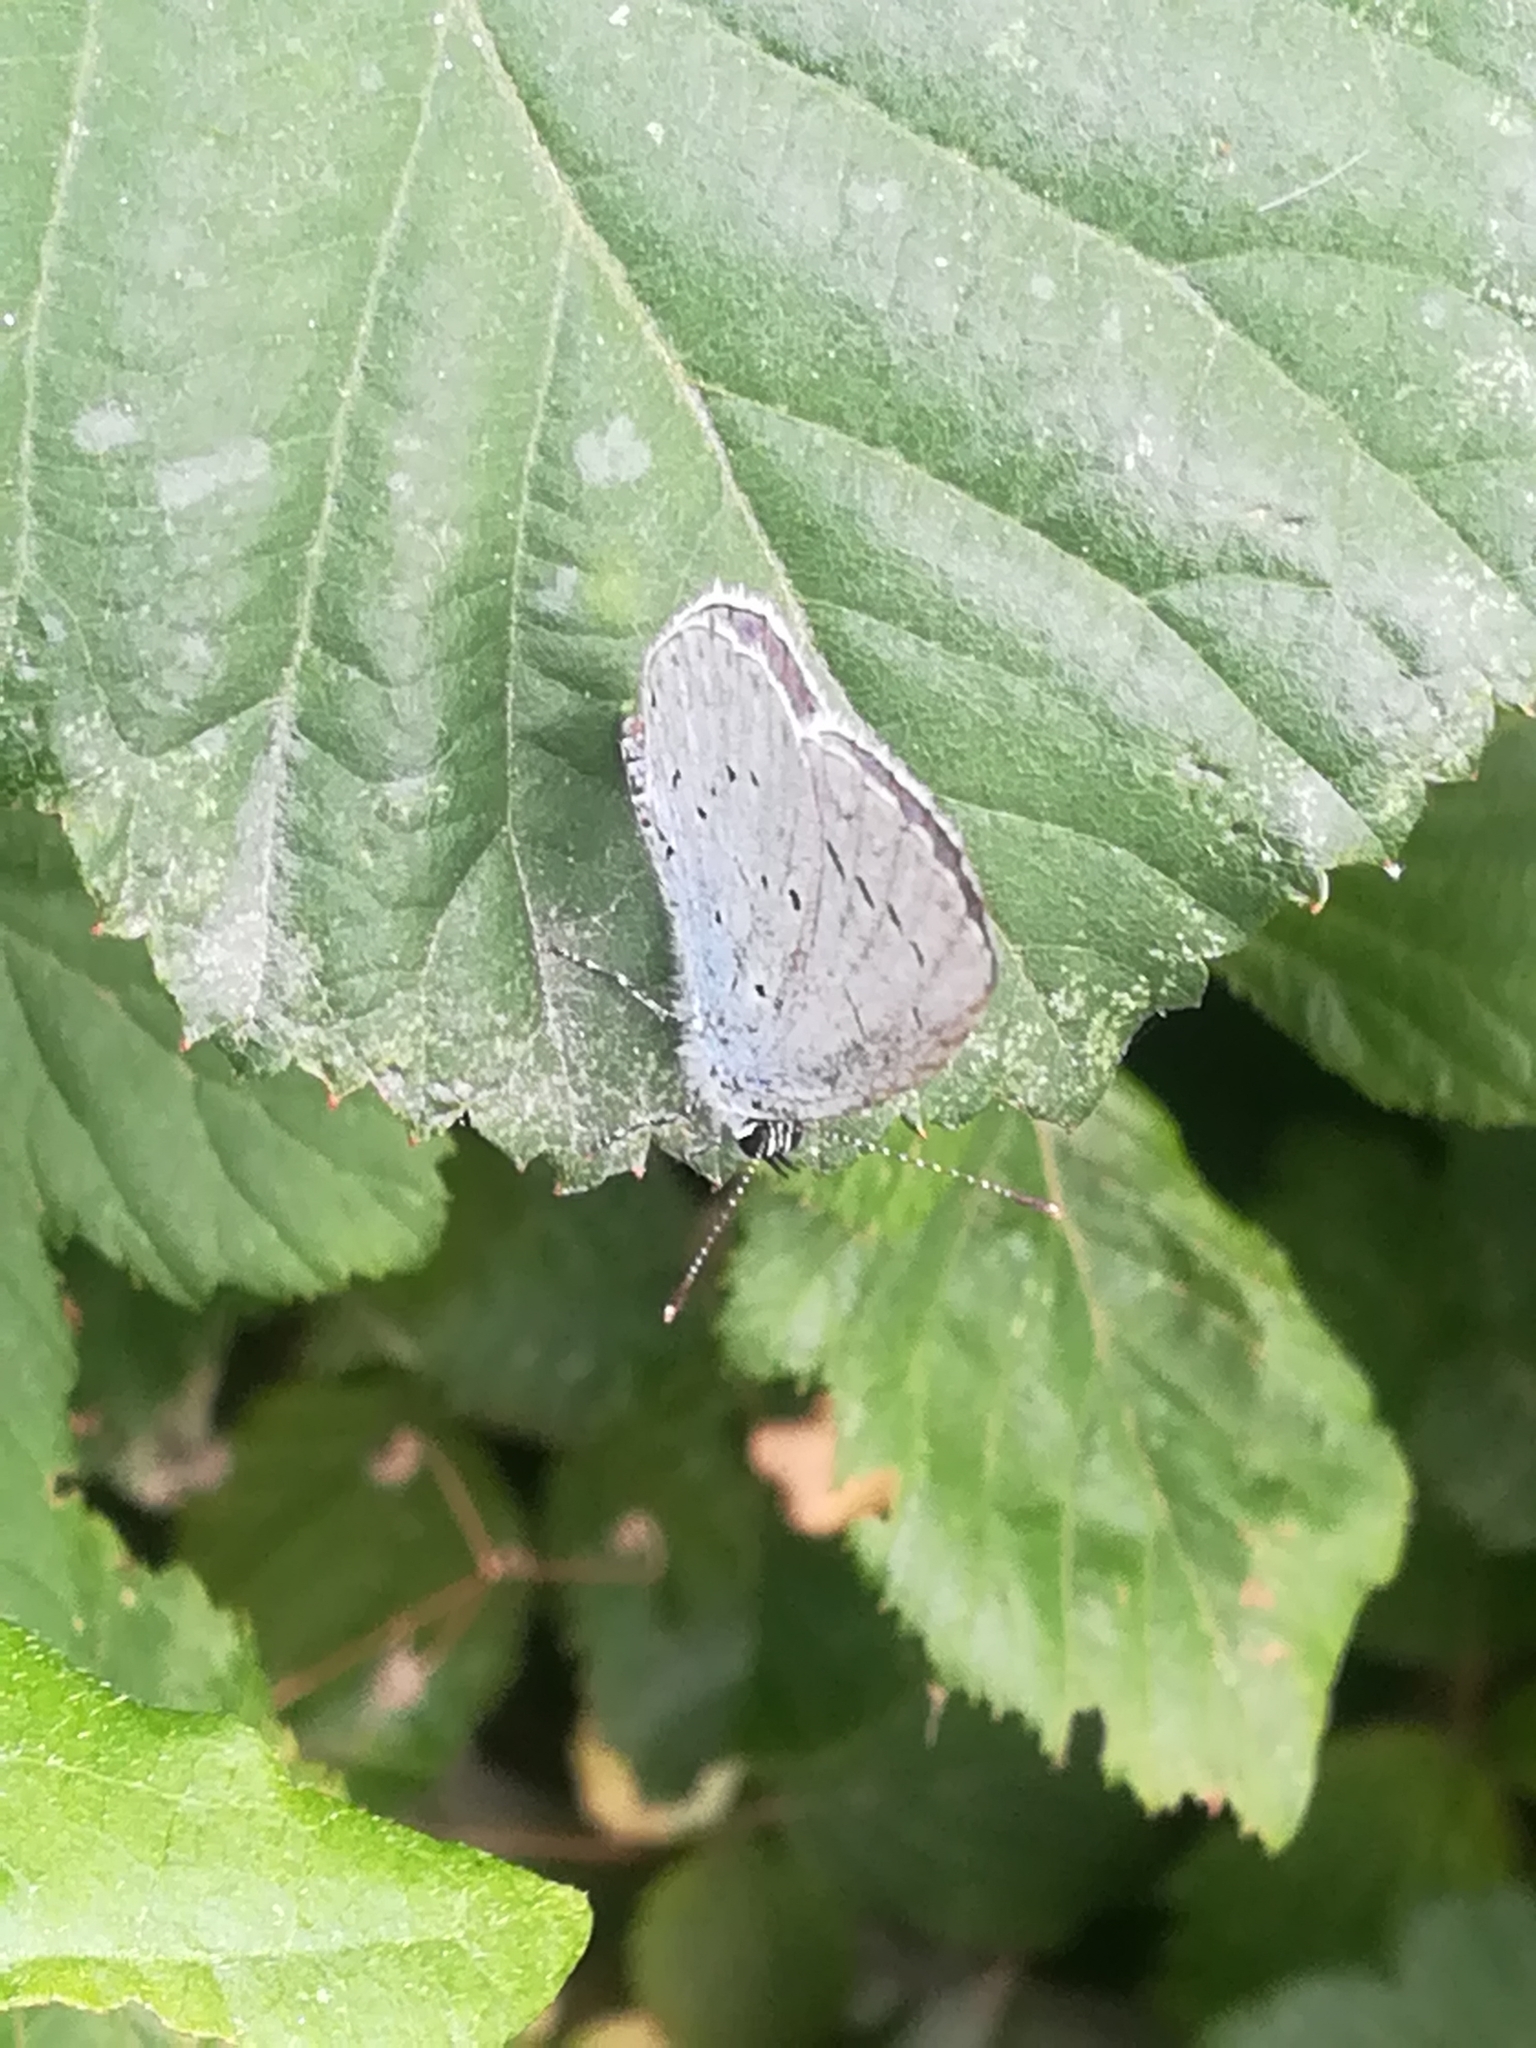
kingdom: Animalia
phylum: Arthropoda
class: Insecta
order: Lepidoptera
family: Lycaenidae
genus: Celastrina
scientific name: Celastrina argiolus
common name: Holly blue
